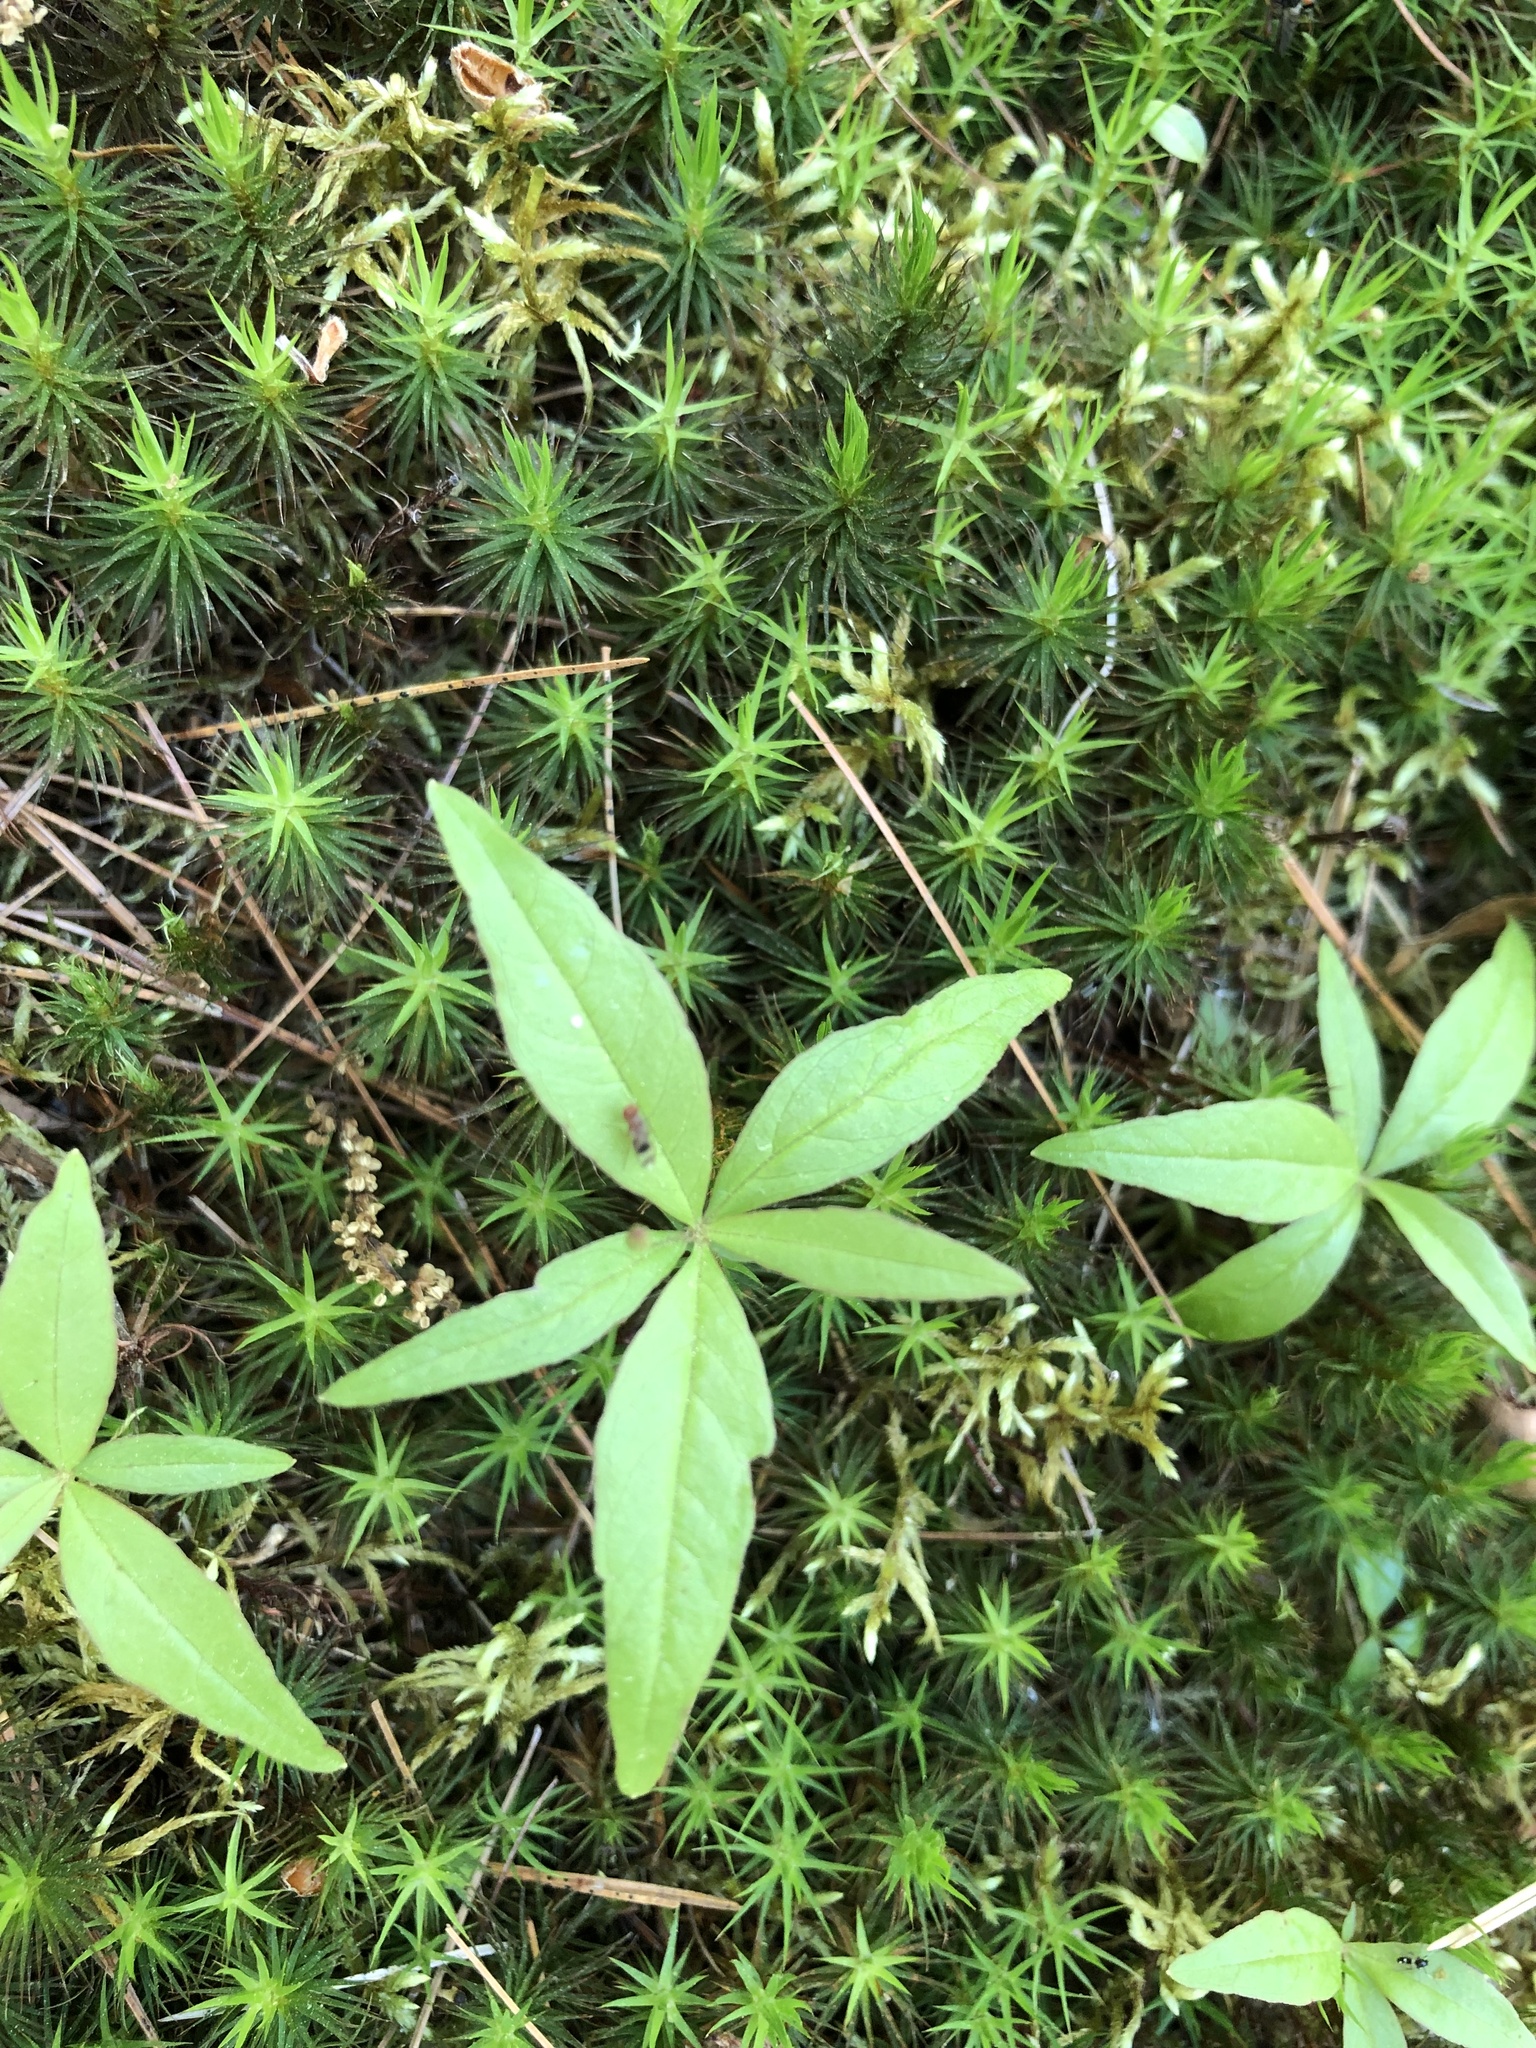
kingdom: Plantae
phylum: Tracheophyta
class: Magnoliopsida
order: Ericales
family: Primulaceae
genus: Lysimachia
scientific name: Lysimachia borealis
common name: American starflower
